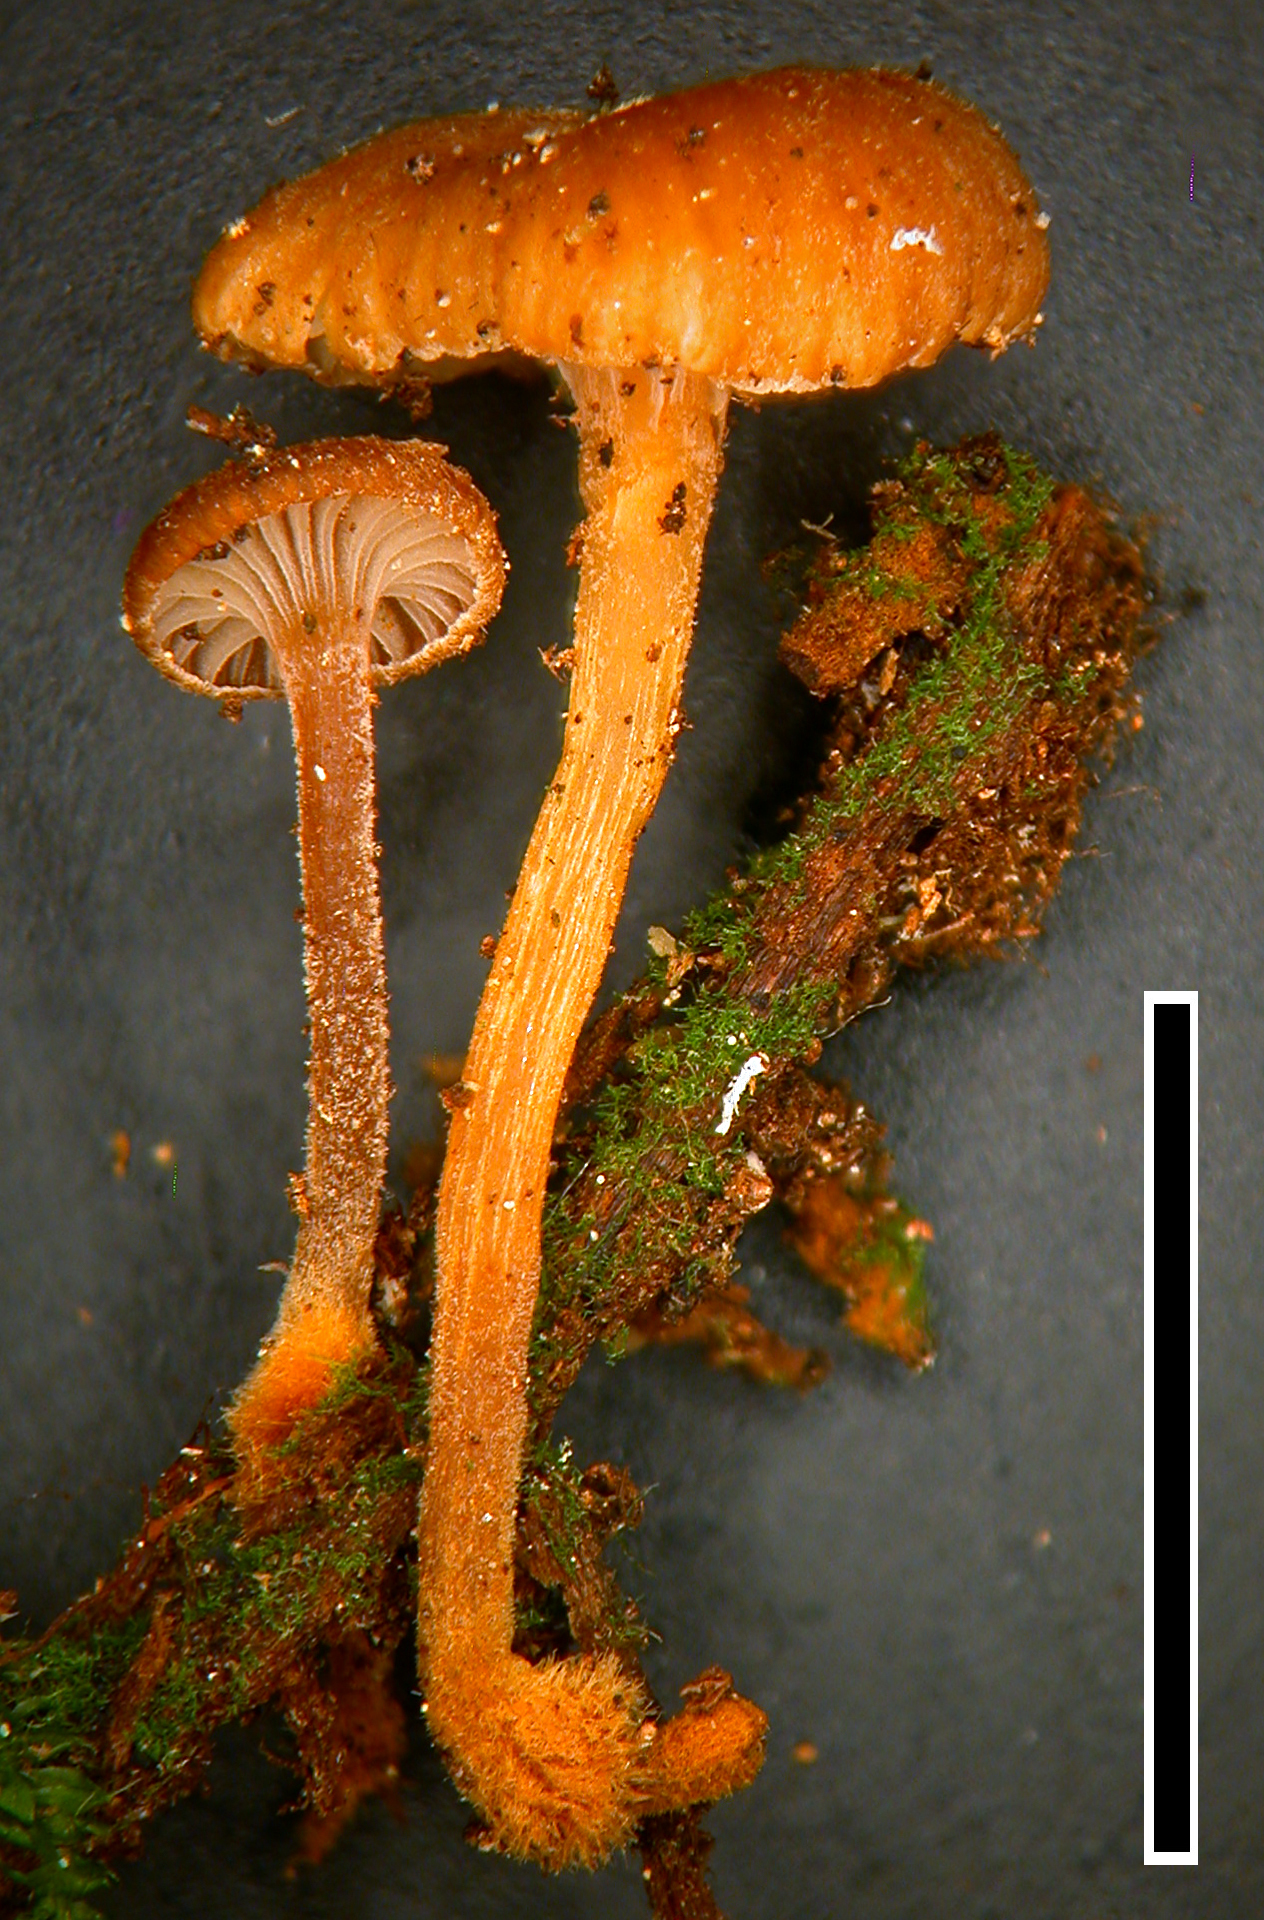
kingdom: Fungi
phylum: Basidiomycota
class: Agaricomycetes
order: Agaricales
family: Mycenaceae
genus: Xeromphalina
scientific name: Xeromphalina podocarpi
